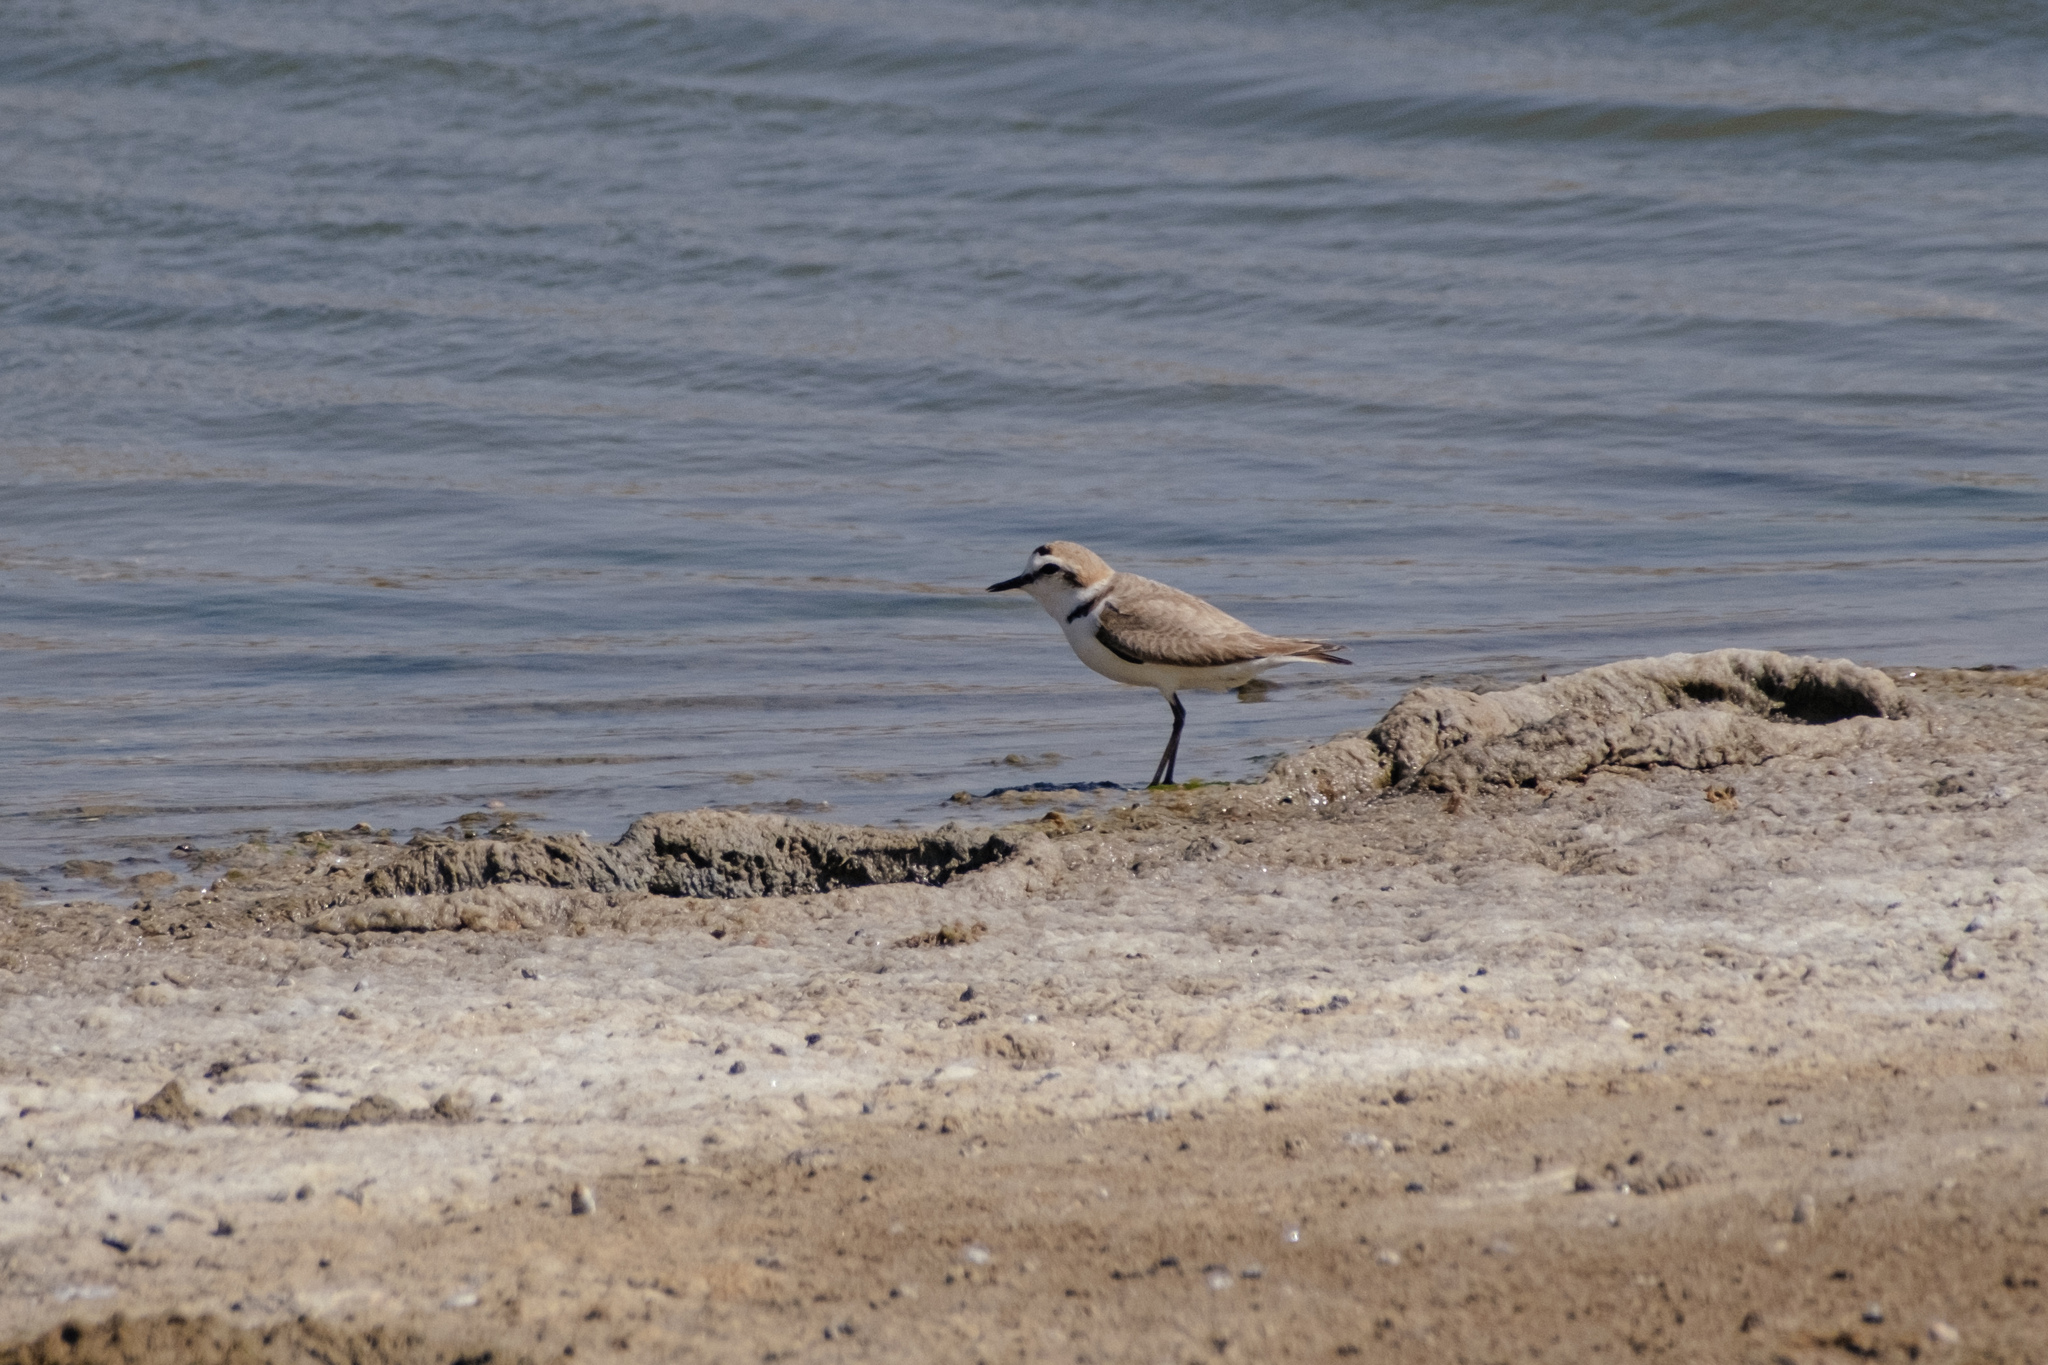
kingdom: Animalia
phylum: Chordata
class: Aves
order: Charadriiformes
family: Charadriidae
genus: Charadrius
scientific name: Charadrius alexandrinus
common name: Kentish plover
